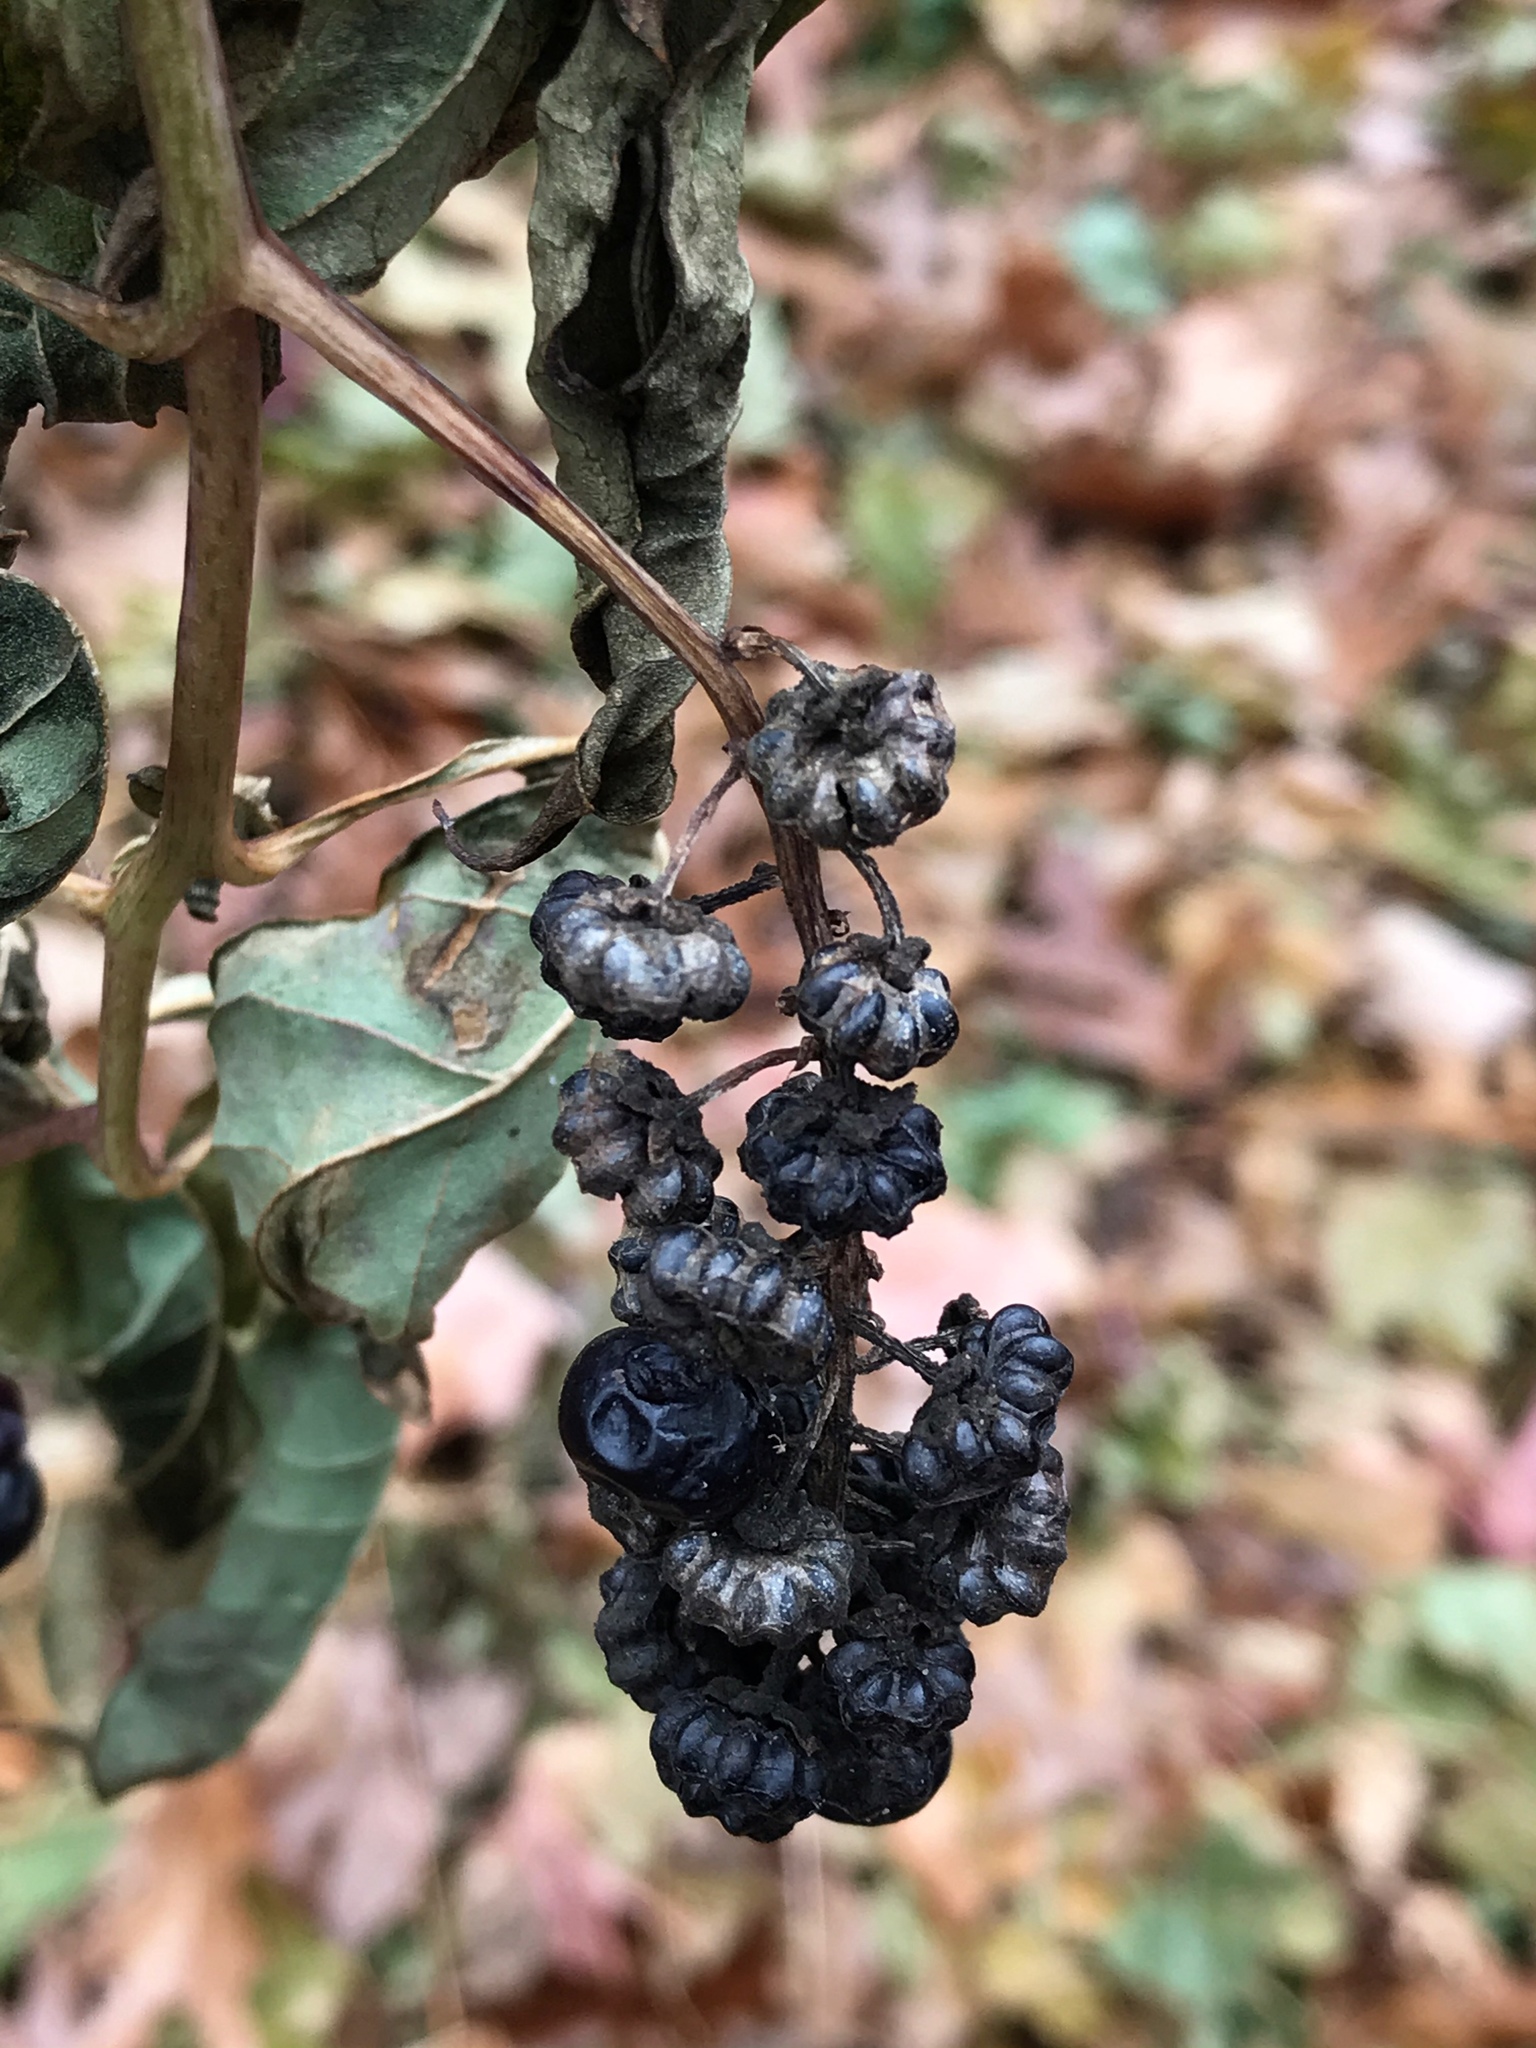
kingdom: Plantae
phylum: Tracheophyta
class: Magnoliopsida
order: Caryophyllales
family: Phytolaccaceae
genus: Phytolacca
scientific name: Phytolacca americana
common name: American pokeweed
